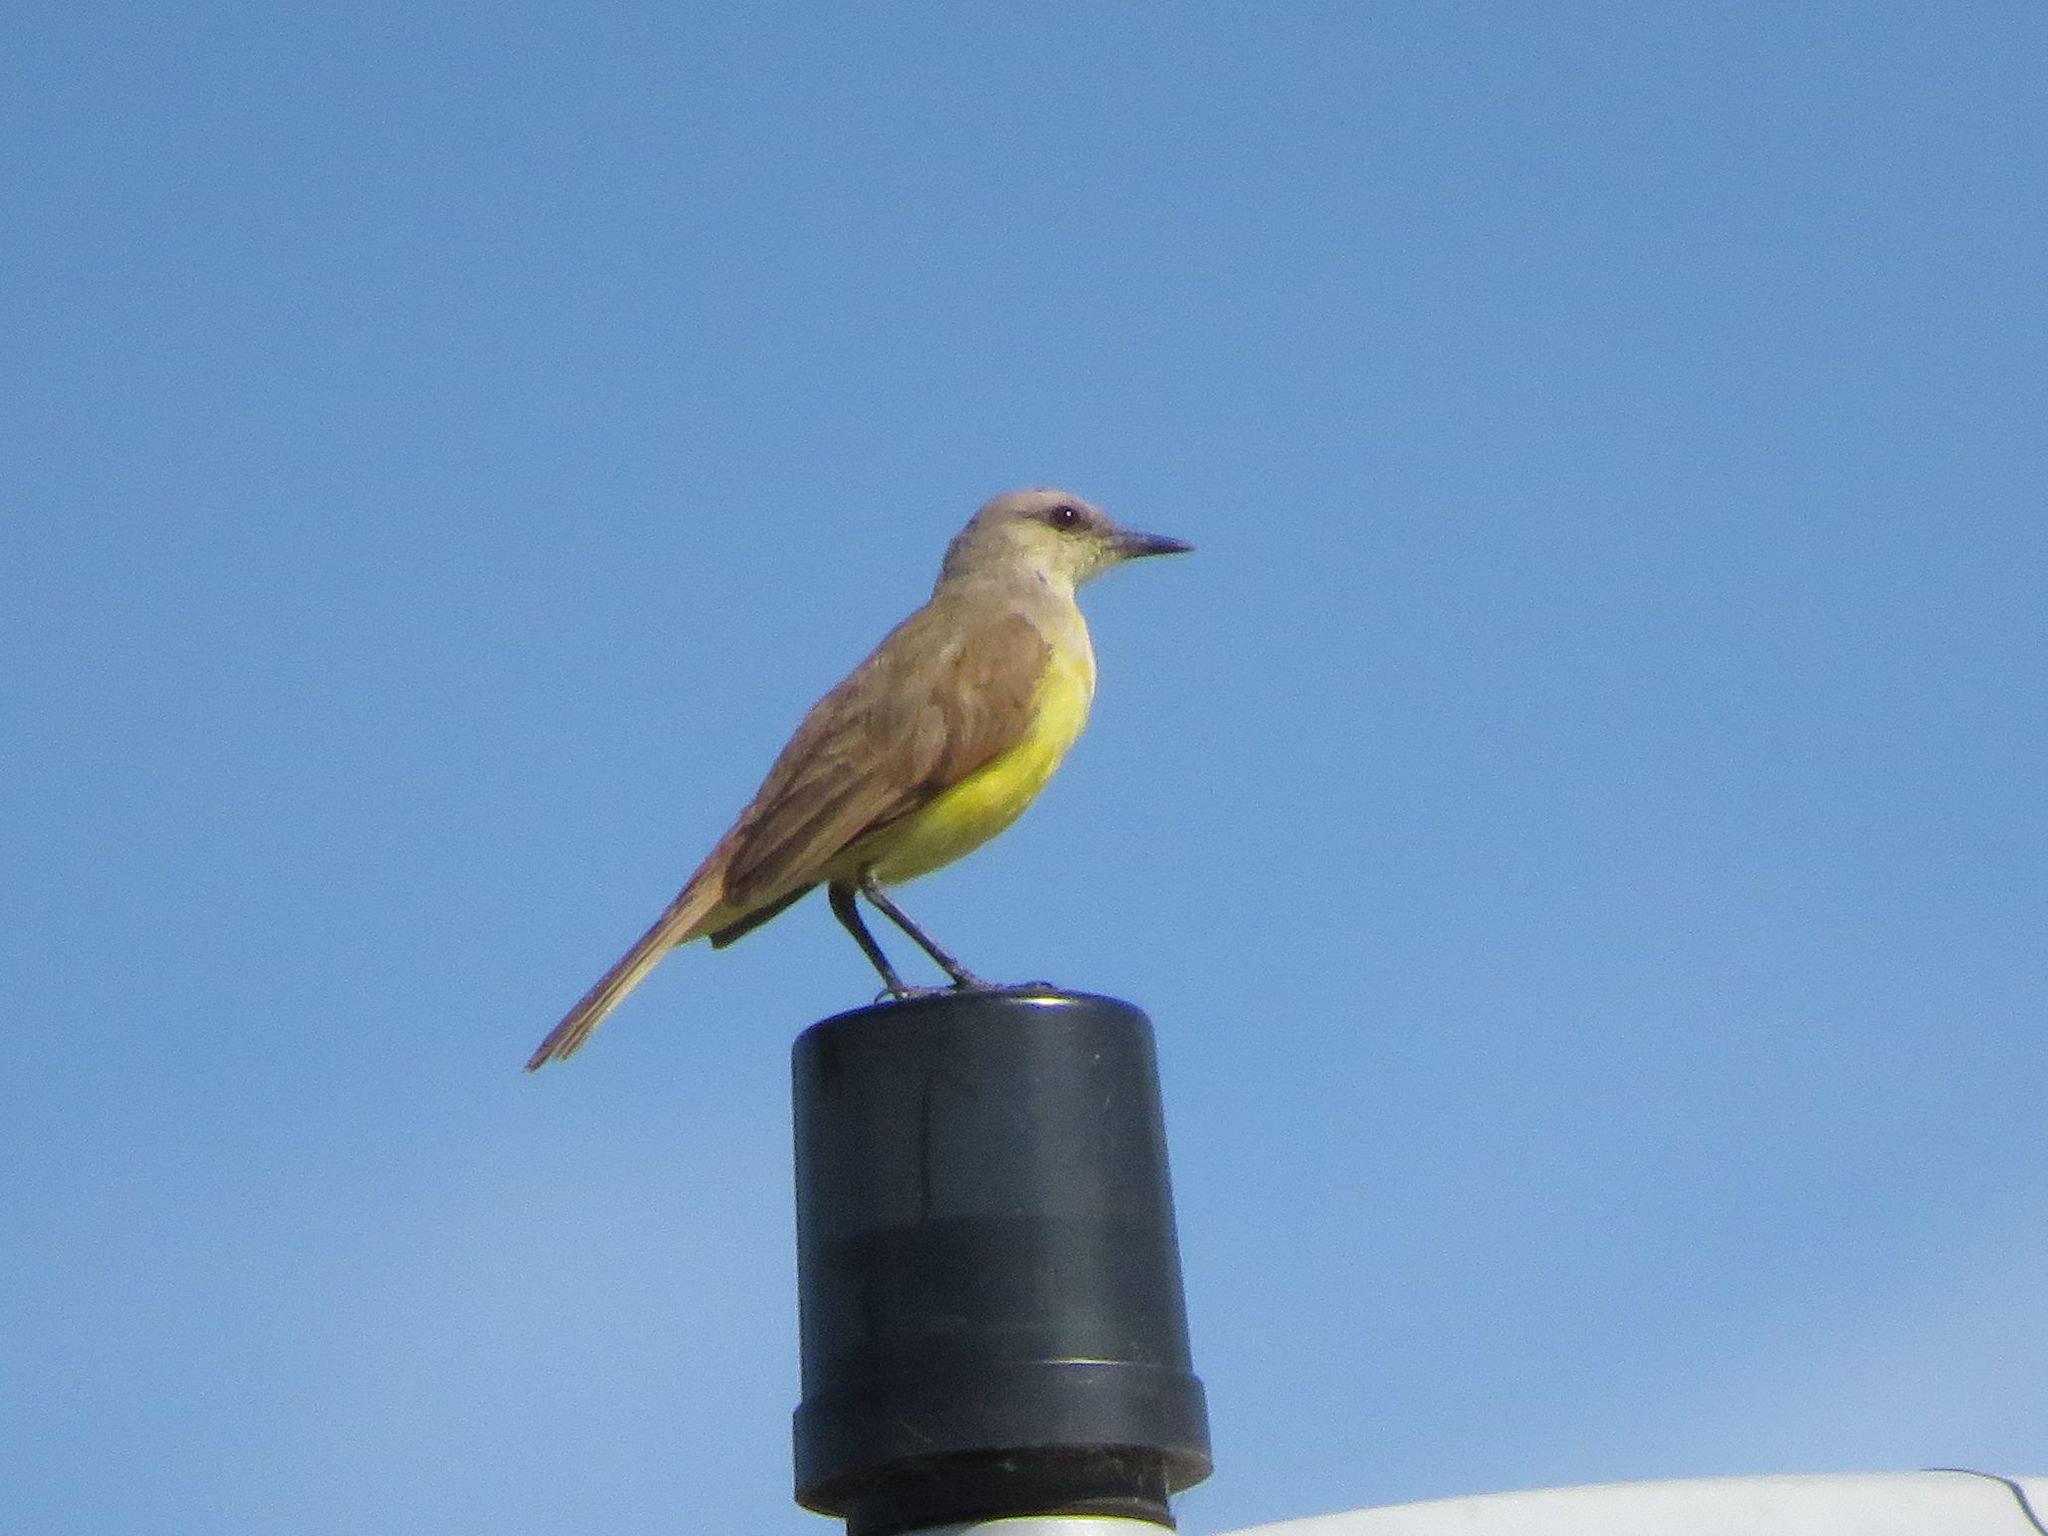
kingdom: Animalia
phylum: Chordata
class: Aves
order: Passeriformes
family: Tyrannidae
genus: Machetornis
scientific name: Machetornis rixosa
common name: Cattle tyrant
